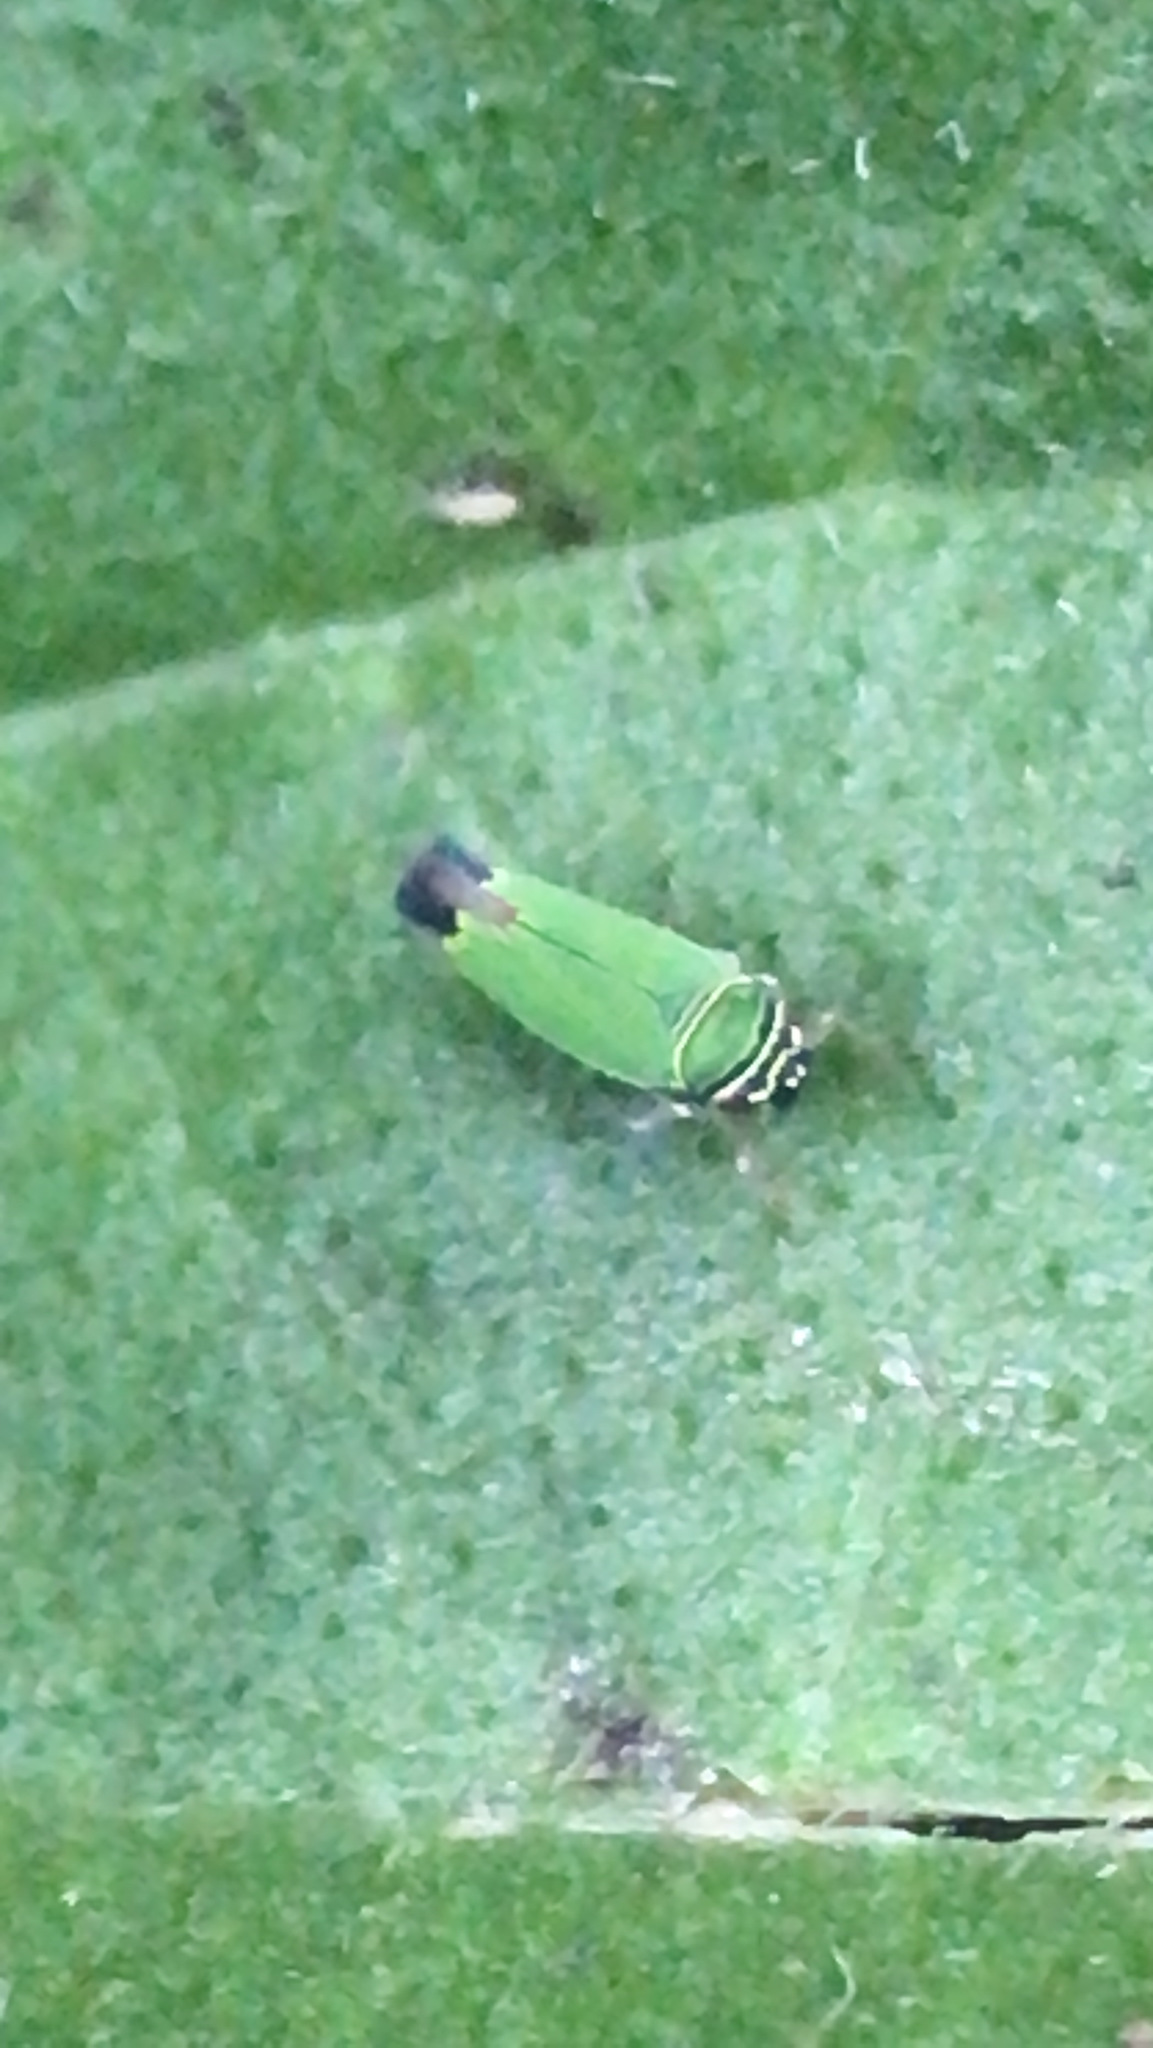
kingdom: Animalia
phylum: Arthropoda
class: Insecta
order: Hemiptera
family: Cicadellidae
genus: Tylozygus
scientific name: Tylozygus geometricus
